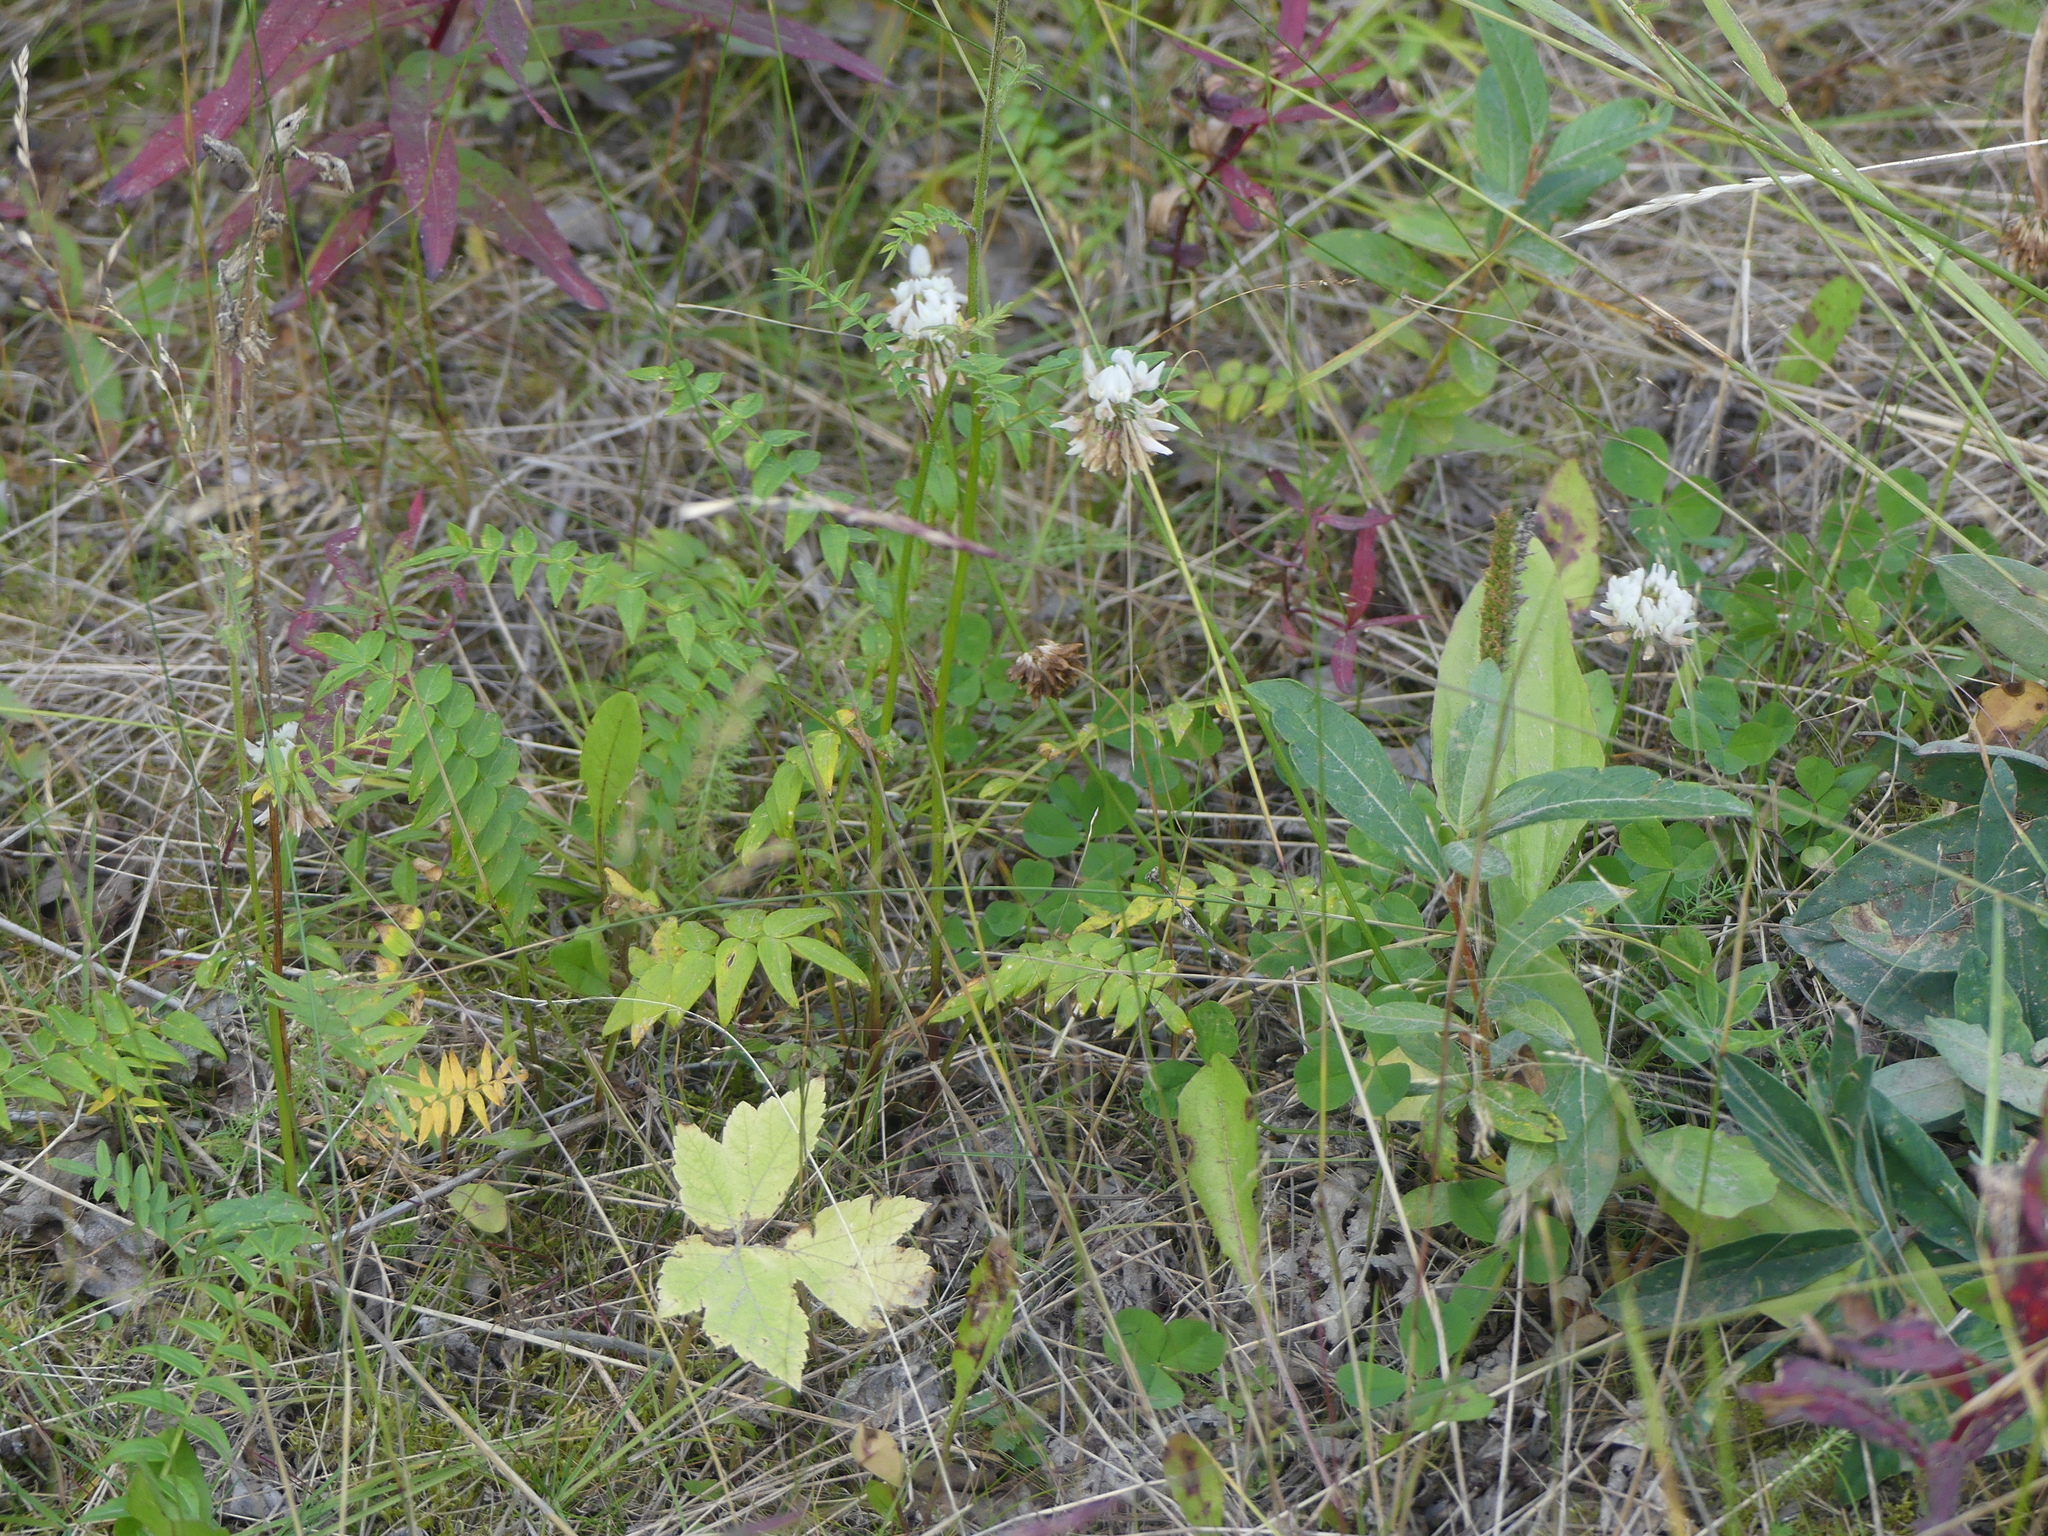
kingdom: Plantae
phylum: Tracheophyta
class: Magnoliopsida
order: Fabales
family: Fabaceae
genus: Trifolium
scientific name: Trifolium repens
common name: White clover
